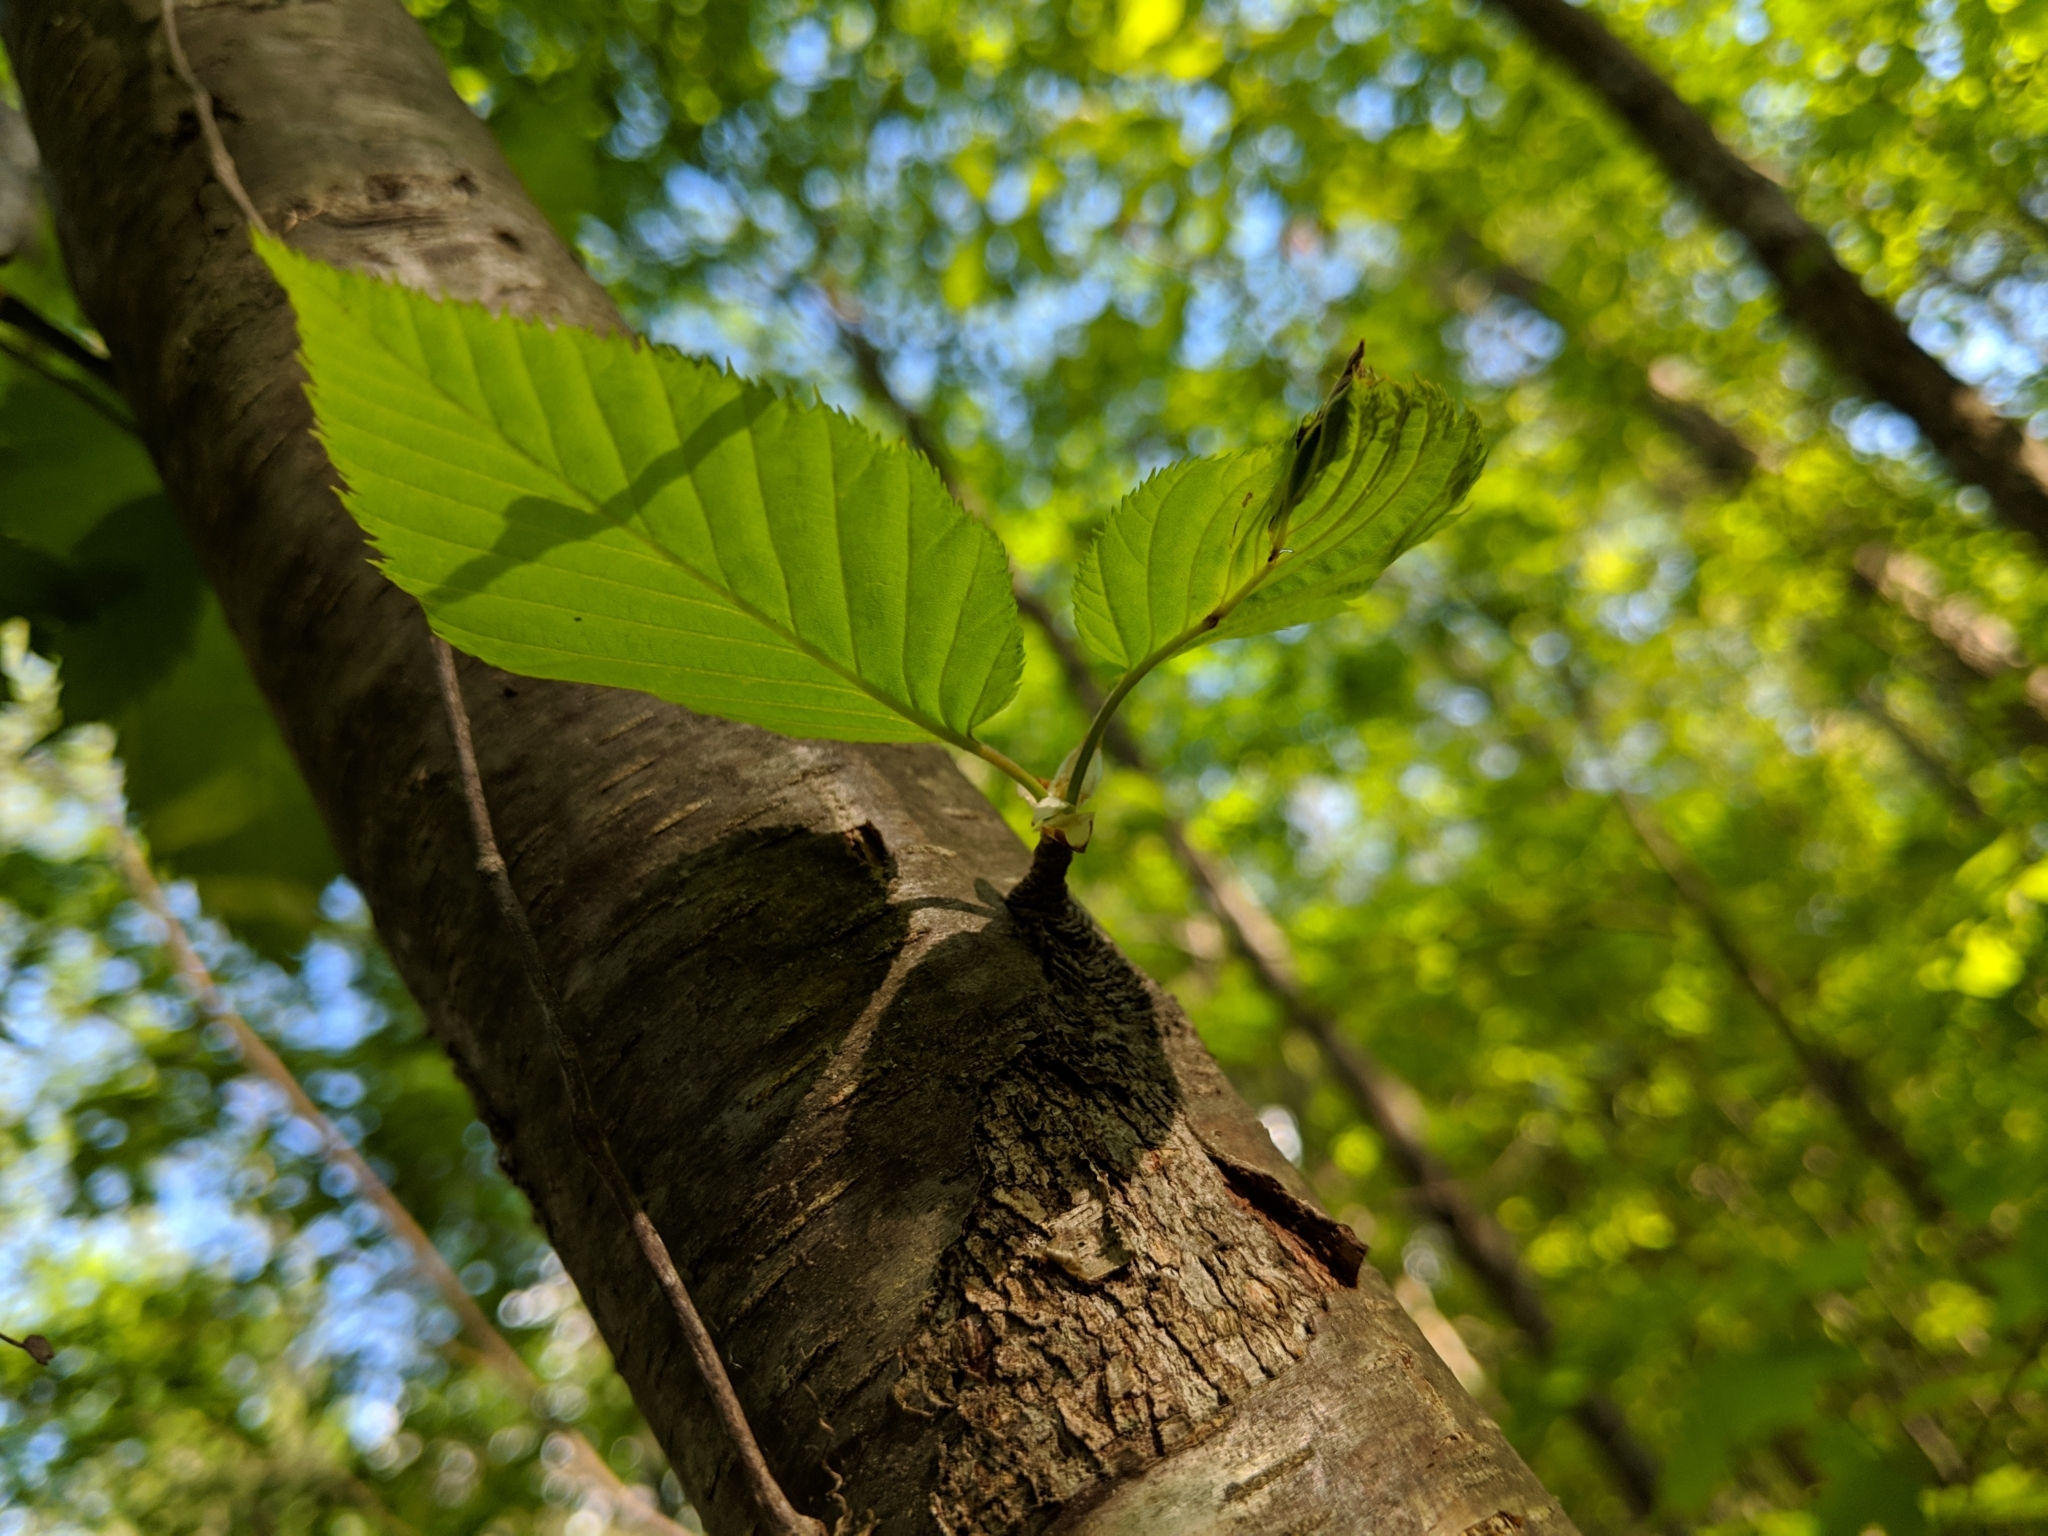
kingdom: Plantae
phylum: Tracheophyta
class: Magnoliopsida
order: Fagales
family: Betulaceae
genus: Betula
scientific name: Betula lenta
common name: Black birch
